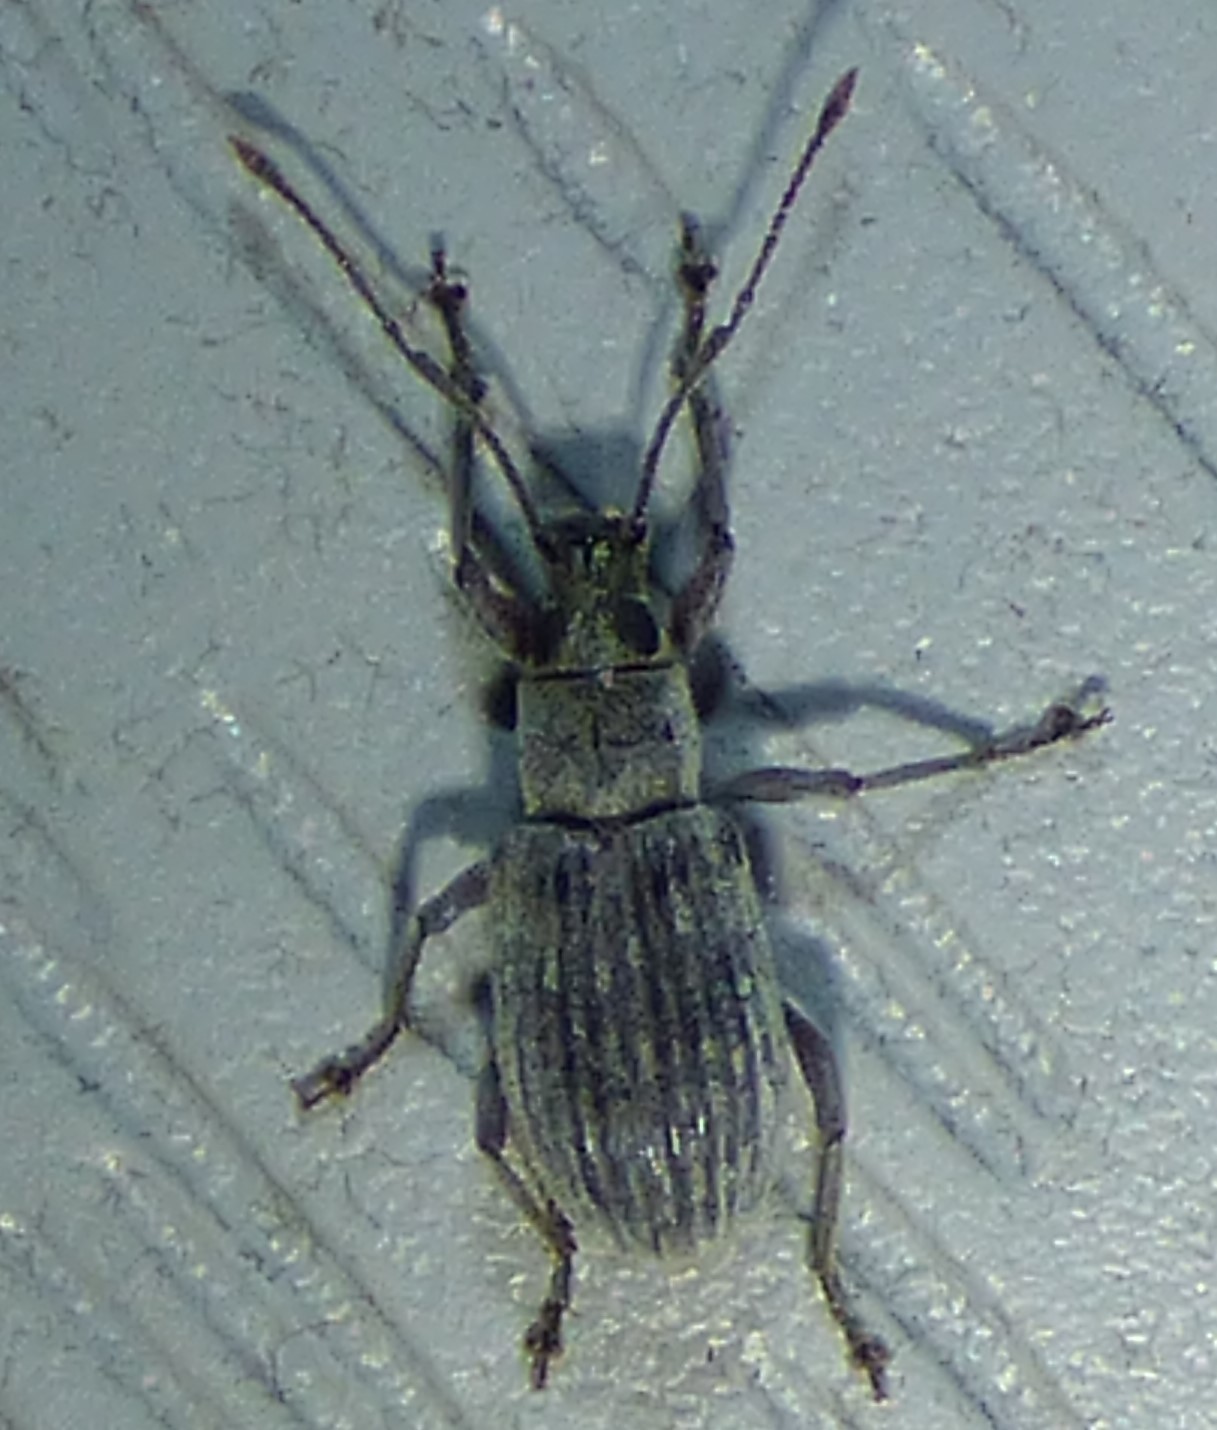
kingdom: Animalia
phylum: Arthropoda
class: Insecta
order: Coleoptera
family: Curculionidae
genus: Cyrtepistomus
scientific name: Cyrtepistomus castaneus
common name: Weevil
